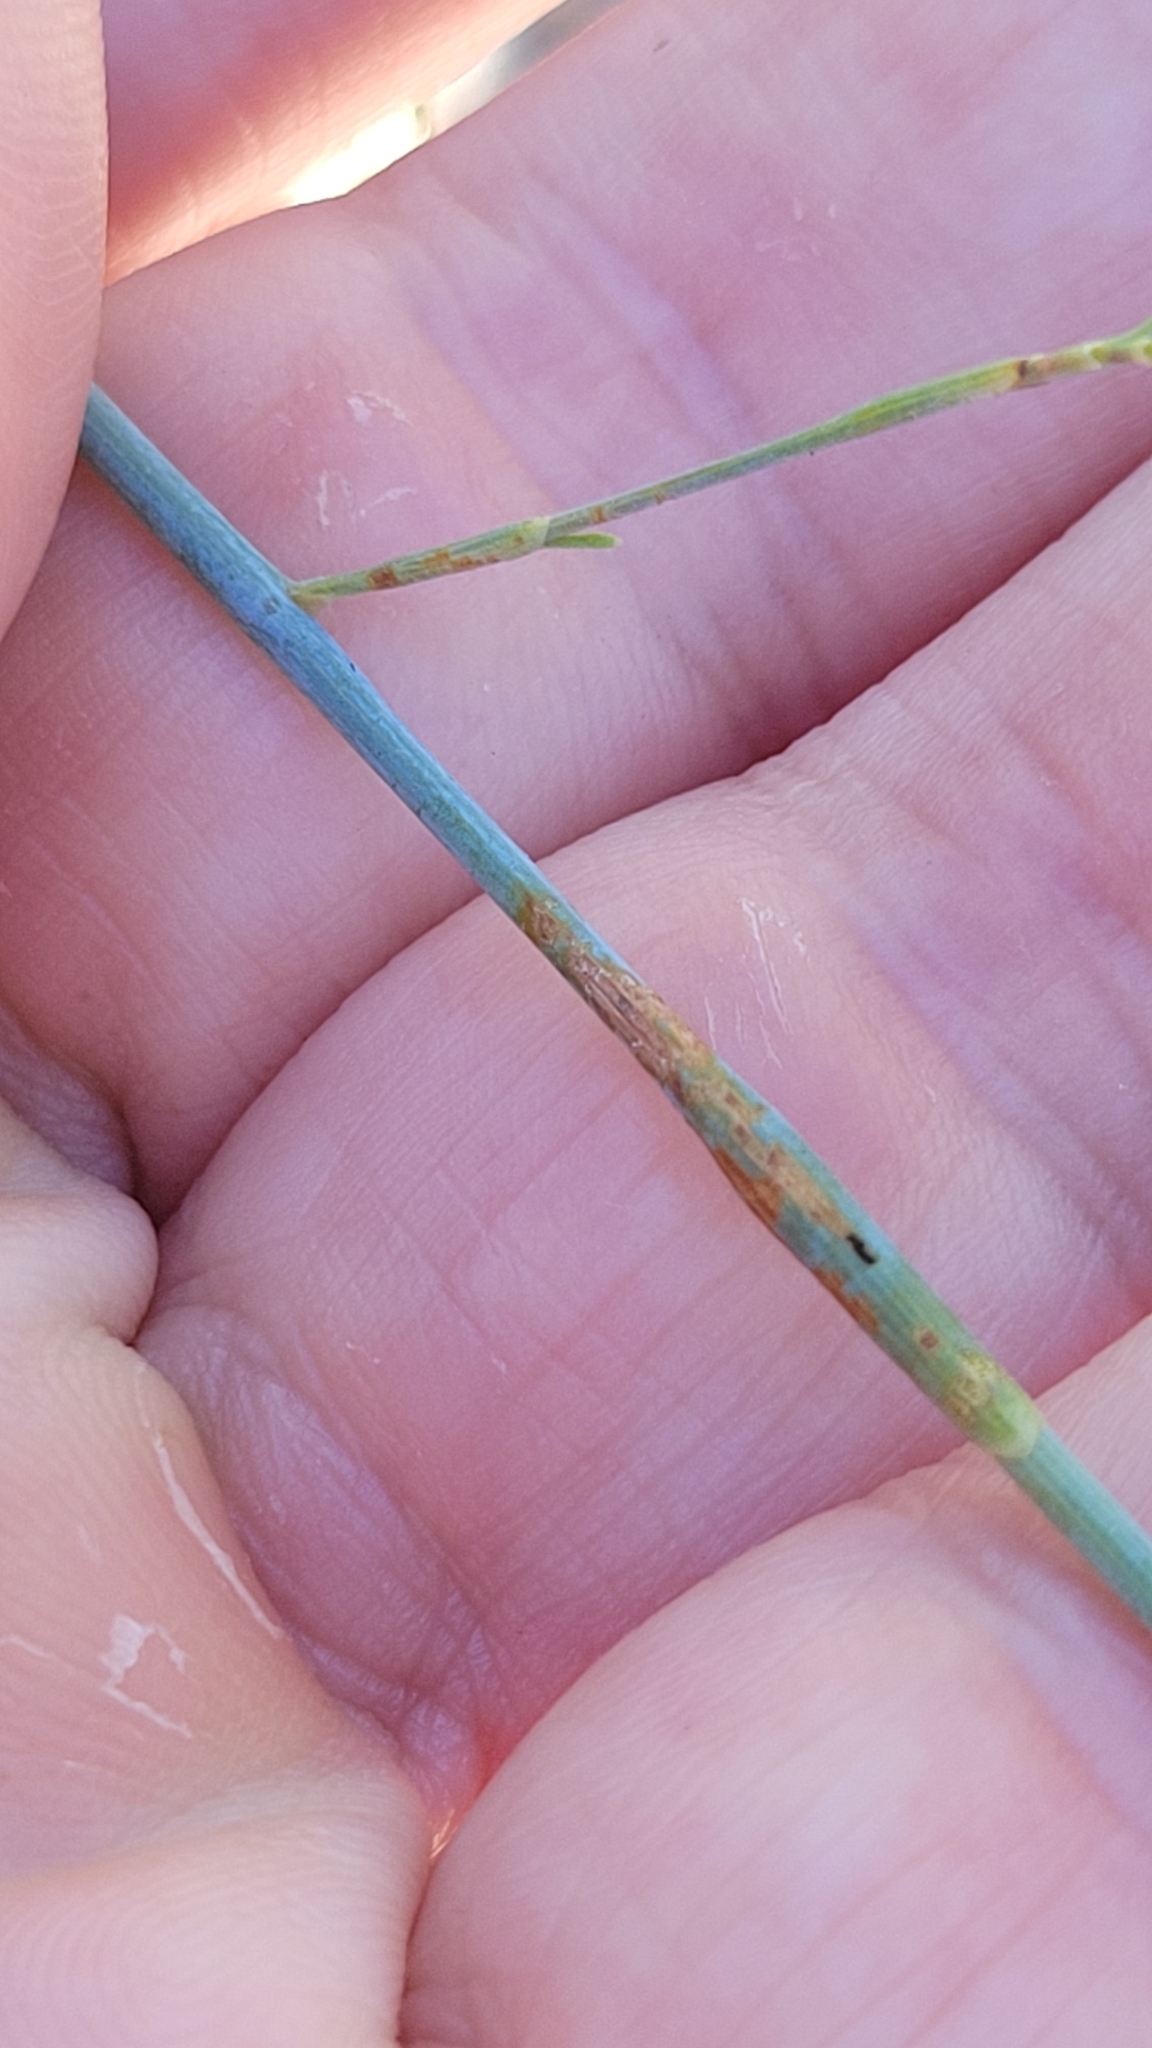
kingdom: Plantae
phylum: Tracheophyta
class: Magnoliopsida
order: Caryophyllales
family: Polygonaceae
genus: Polygonella
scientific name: Polygonella gracilis
